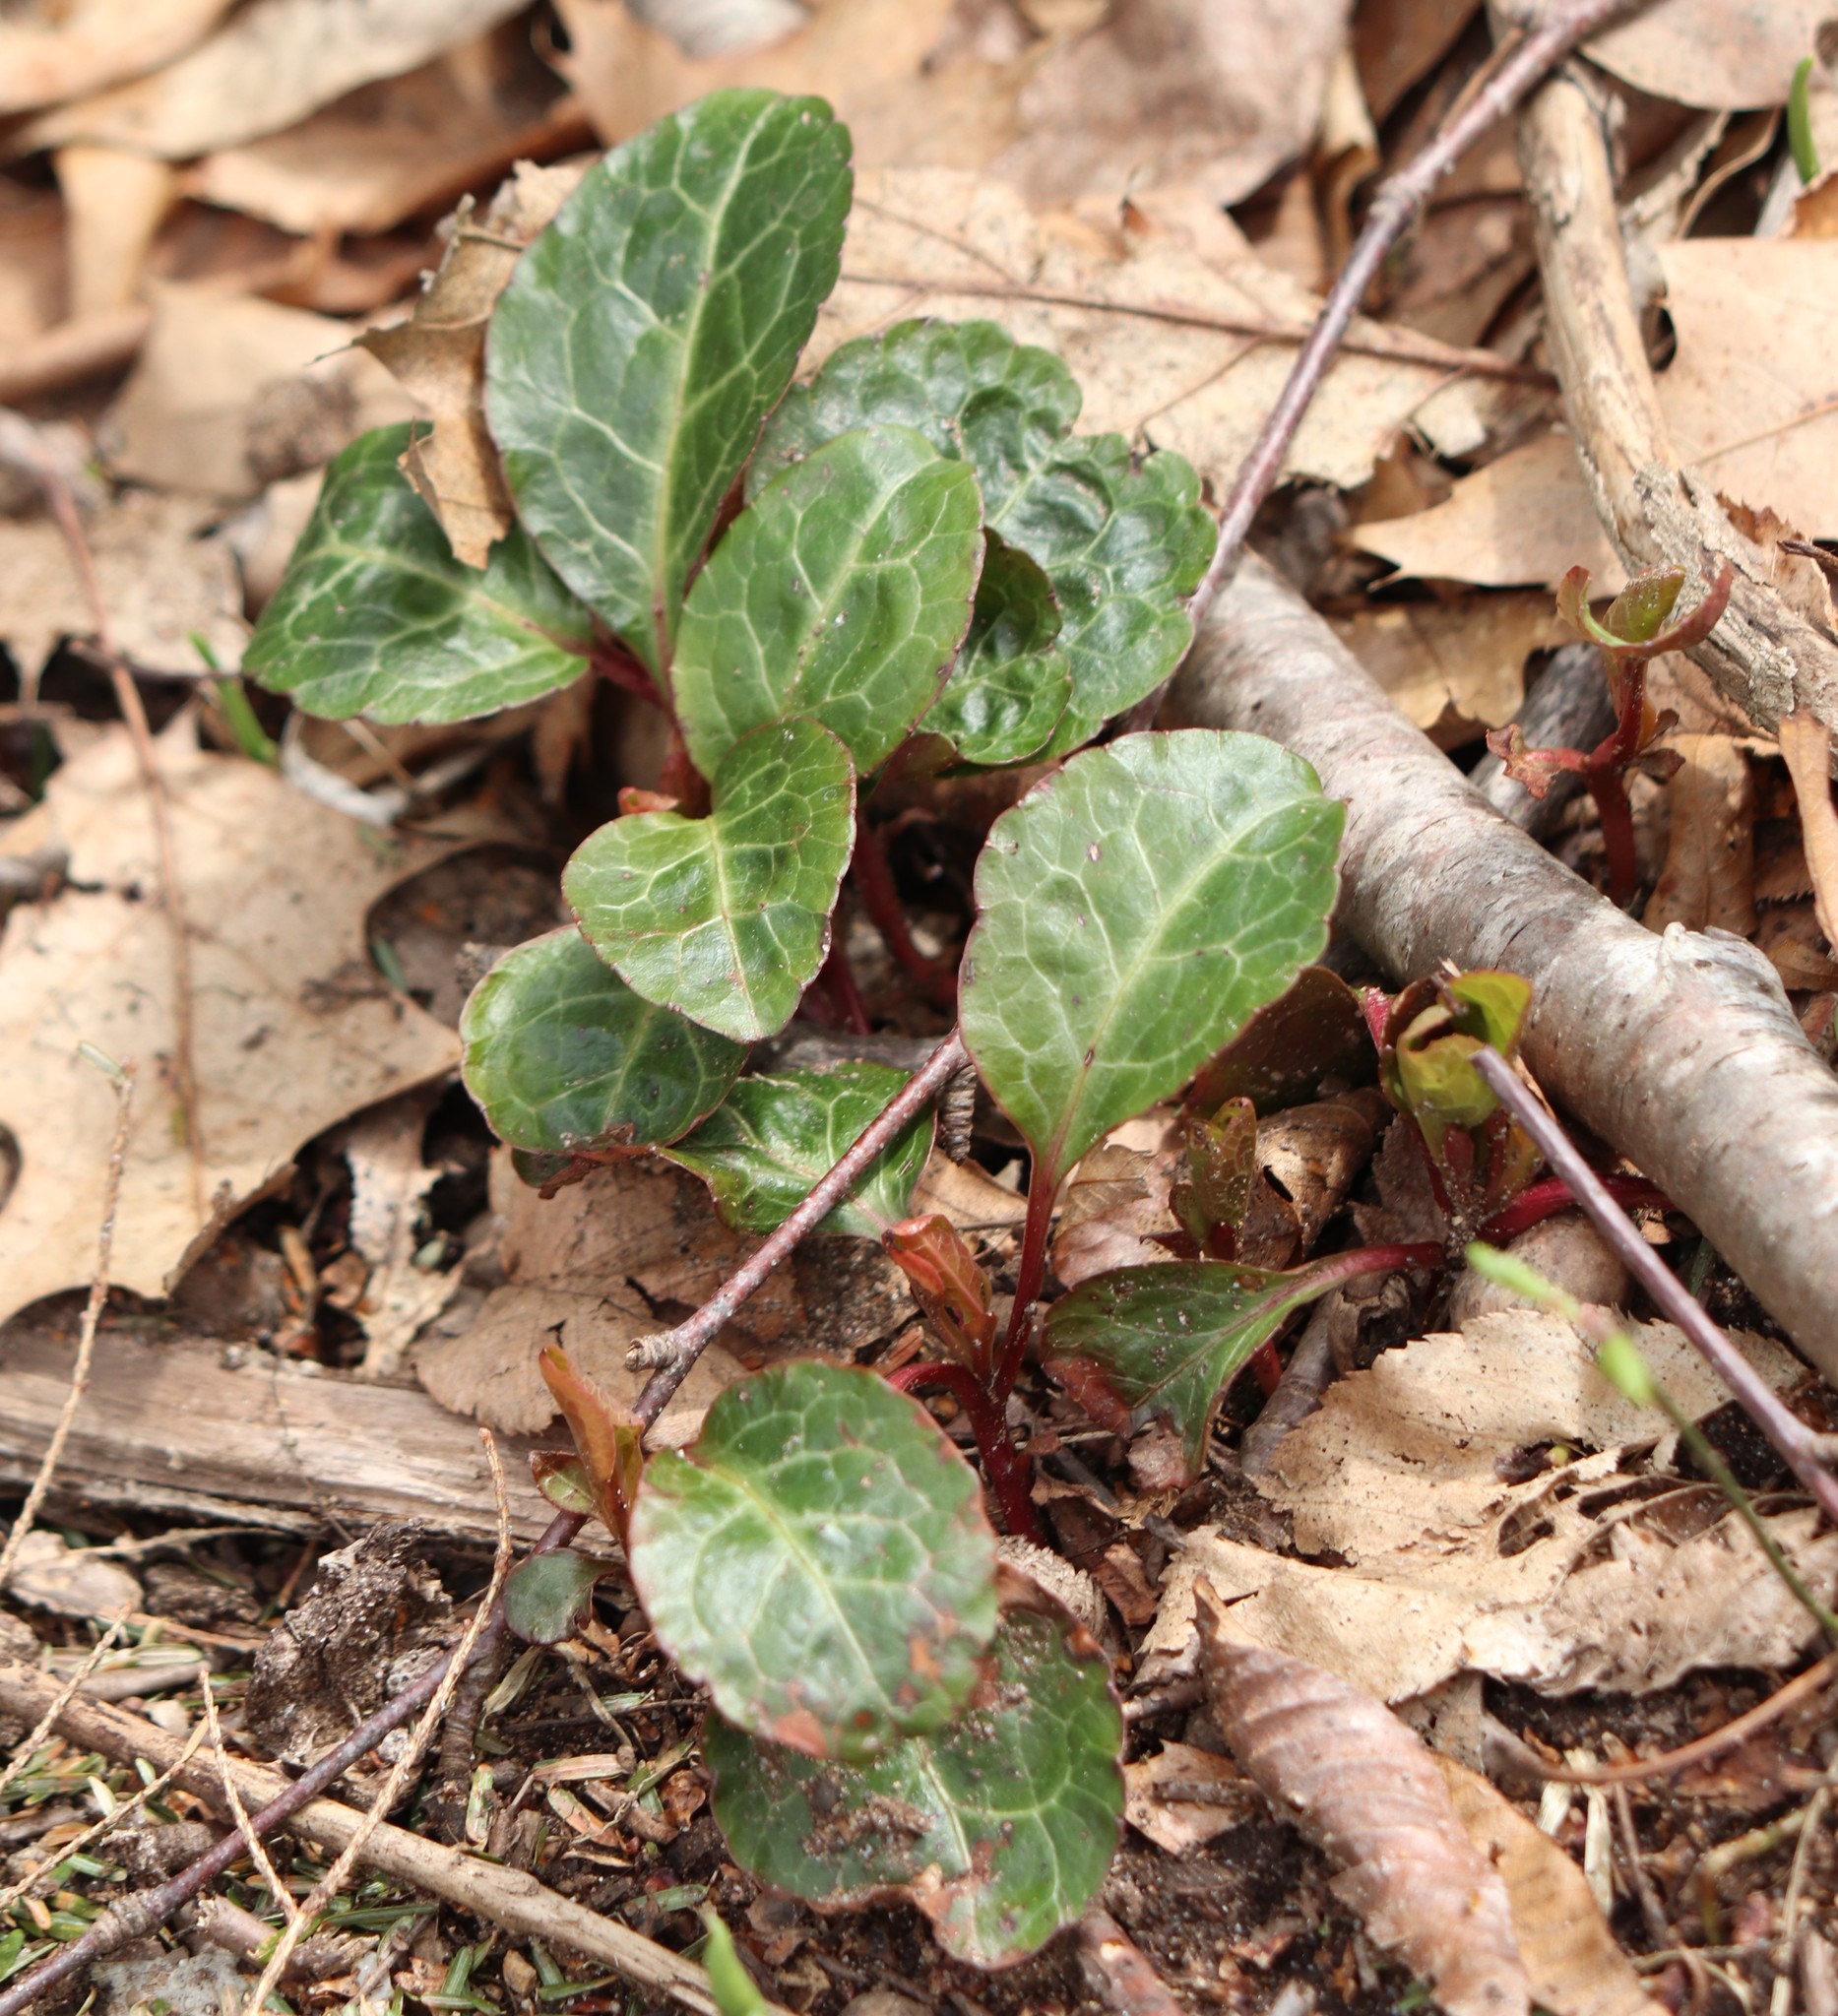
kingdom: Plantae
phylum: Tracheophyta
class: Magnoliopsida
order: Ericales
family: Ericaceae
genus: Pyrola
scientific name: Pyrola americana
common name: American wintergreen
